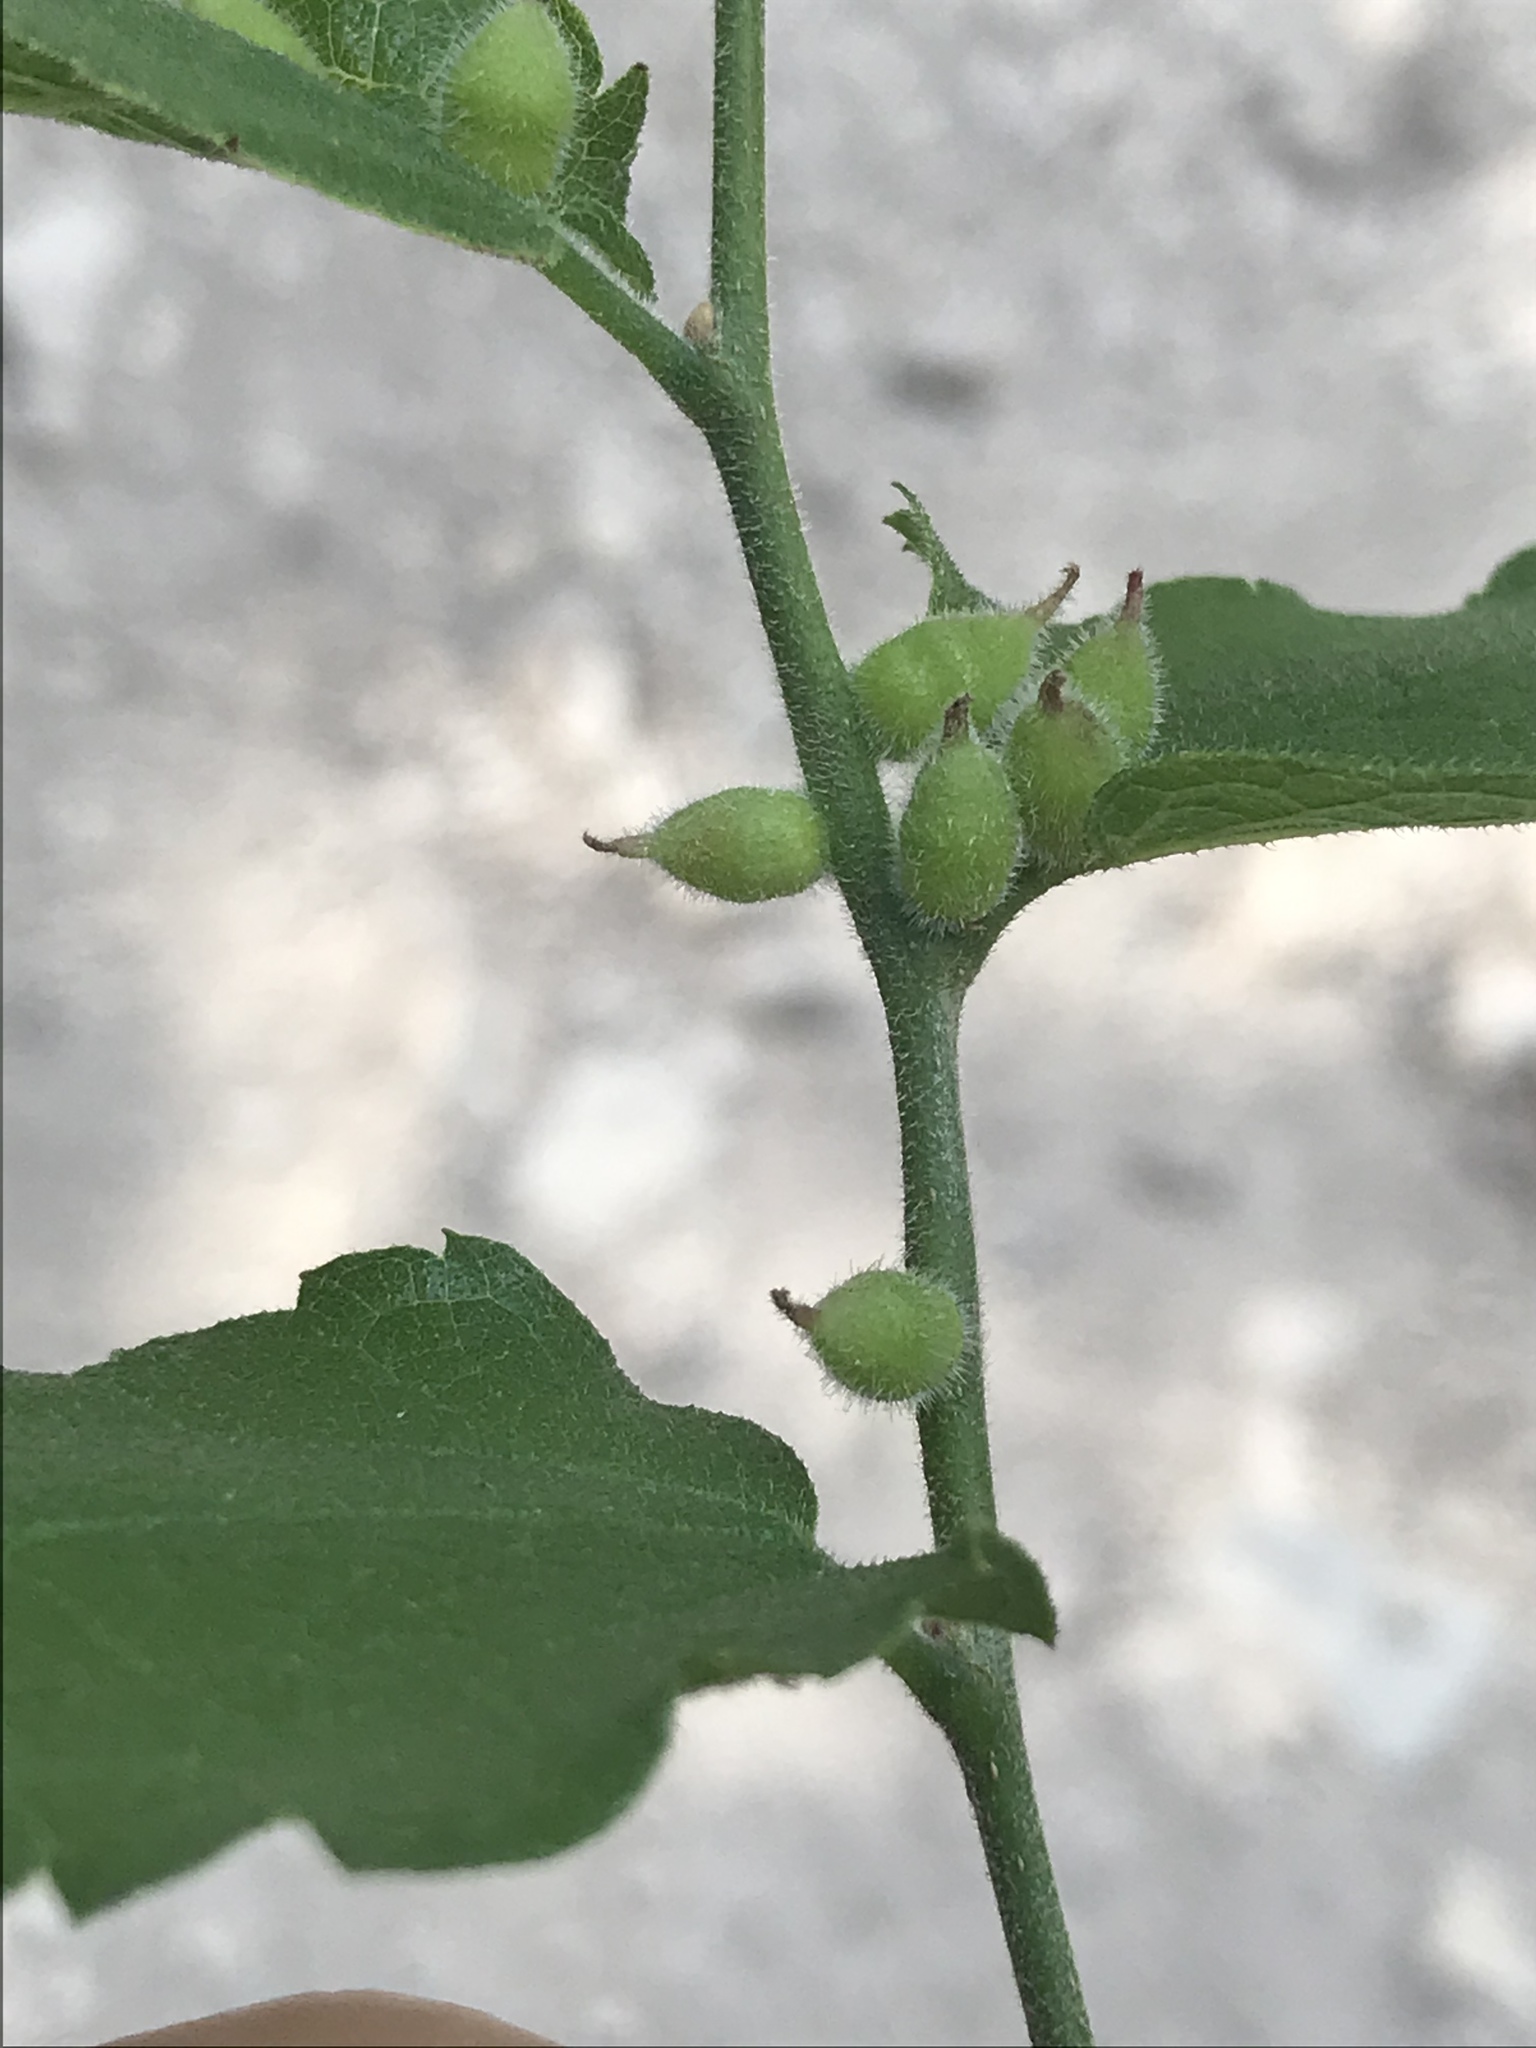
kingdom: Animalia
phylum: Arthropoda
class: Insecta
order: Diptera
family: Cecidomyiidae
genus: Celticecis
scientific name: Celticecis celtiphyllia
